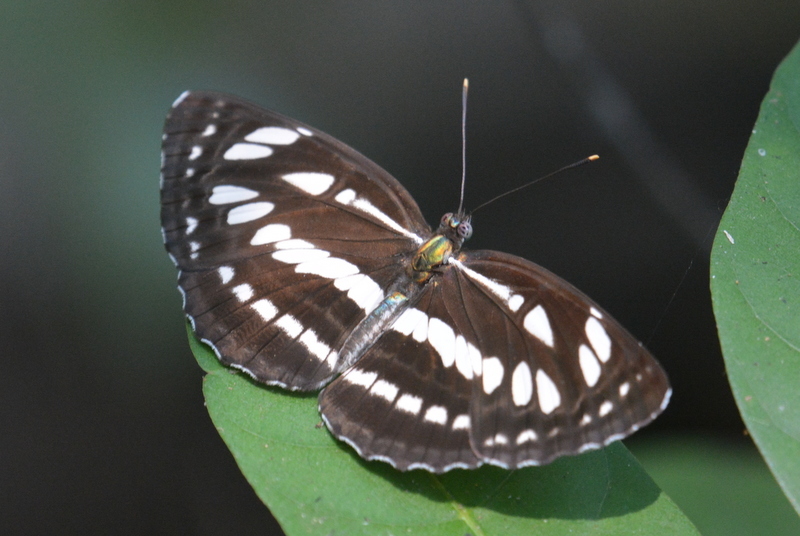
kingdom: Animalia
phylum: Arthropoda
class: Insecta
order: Lepidoptera
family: Nymphalidae
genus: Neptis
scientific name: Neptis hylas
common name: Common sailer
